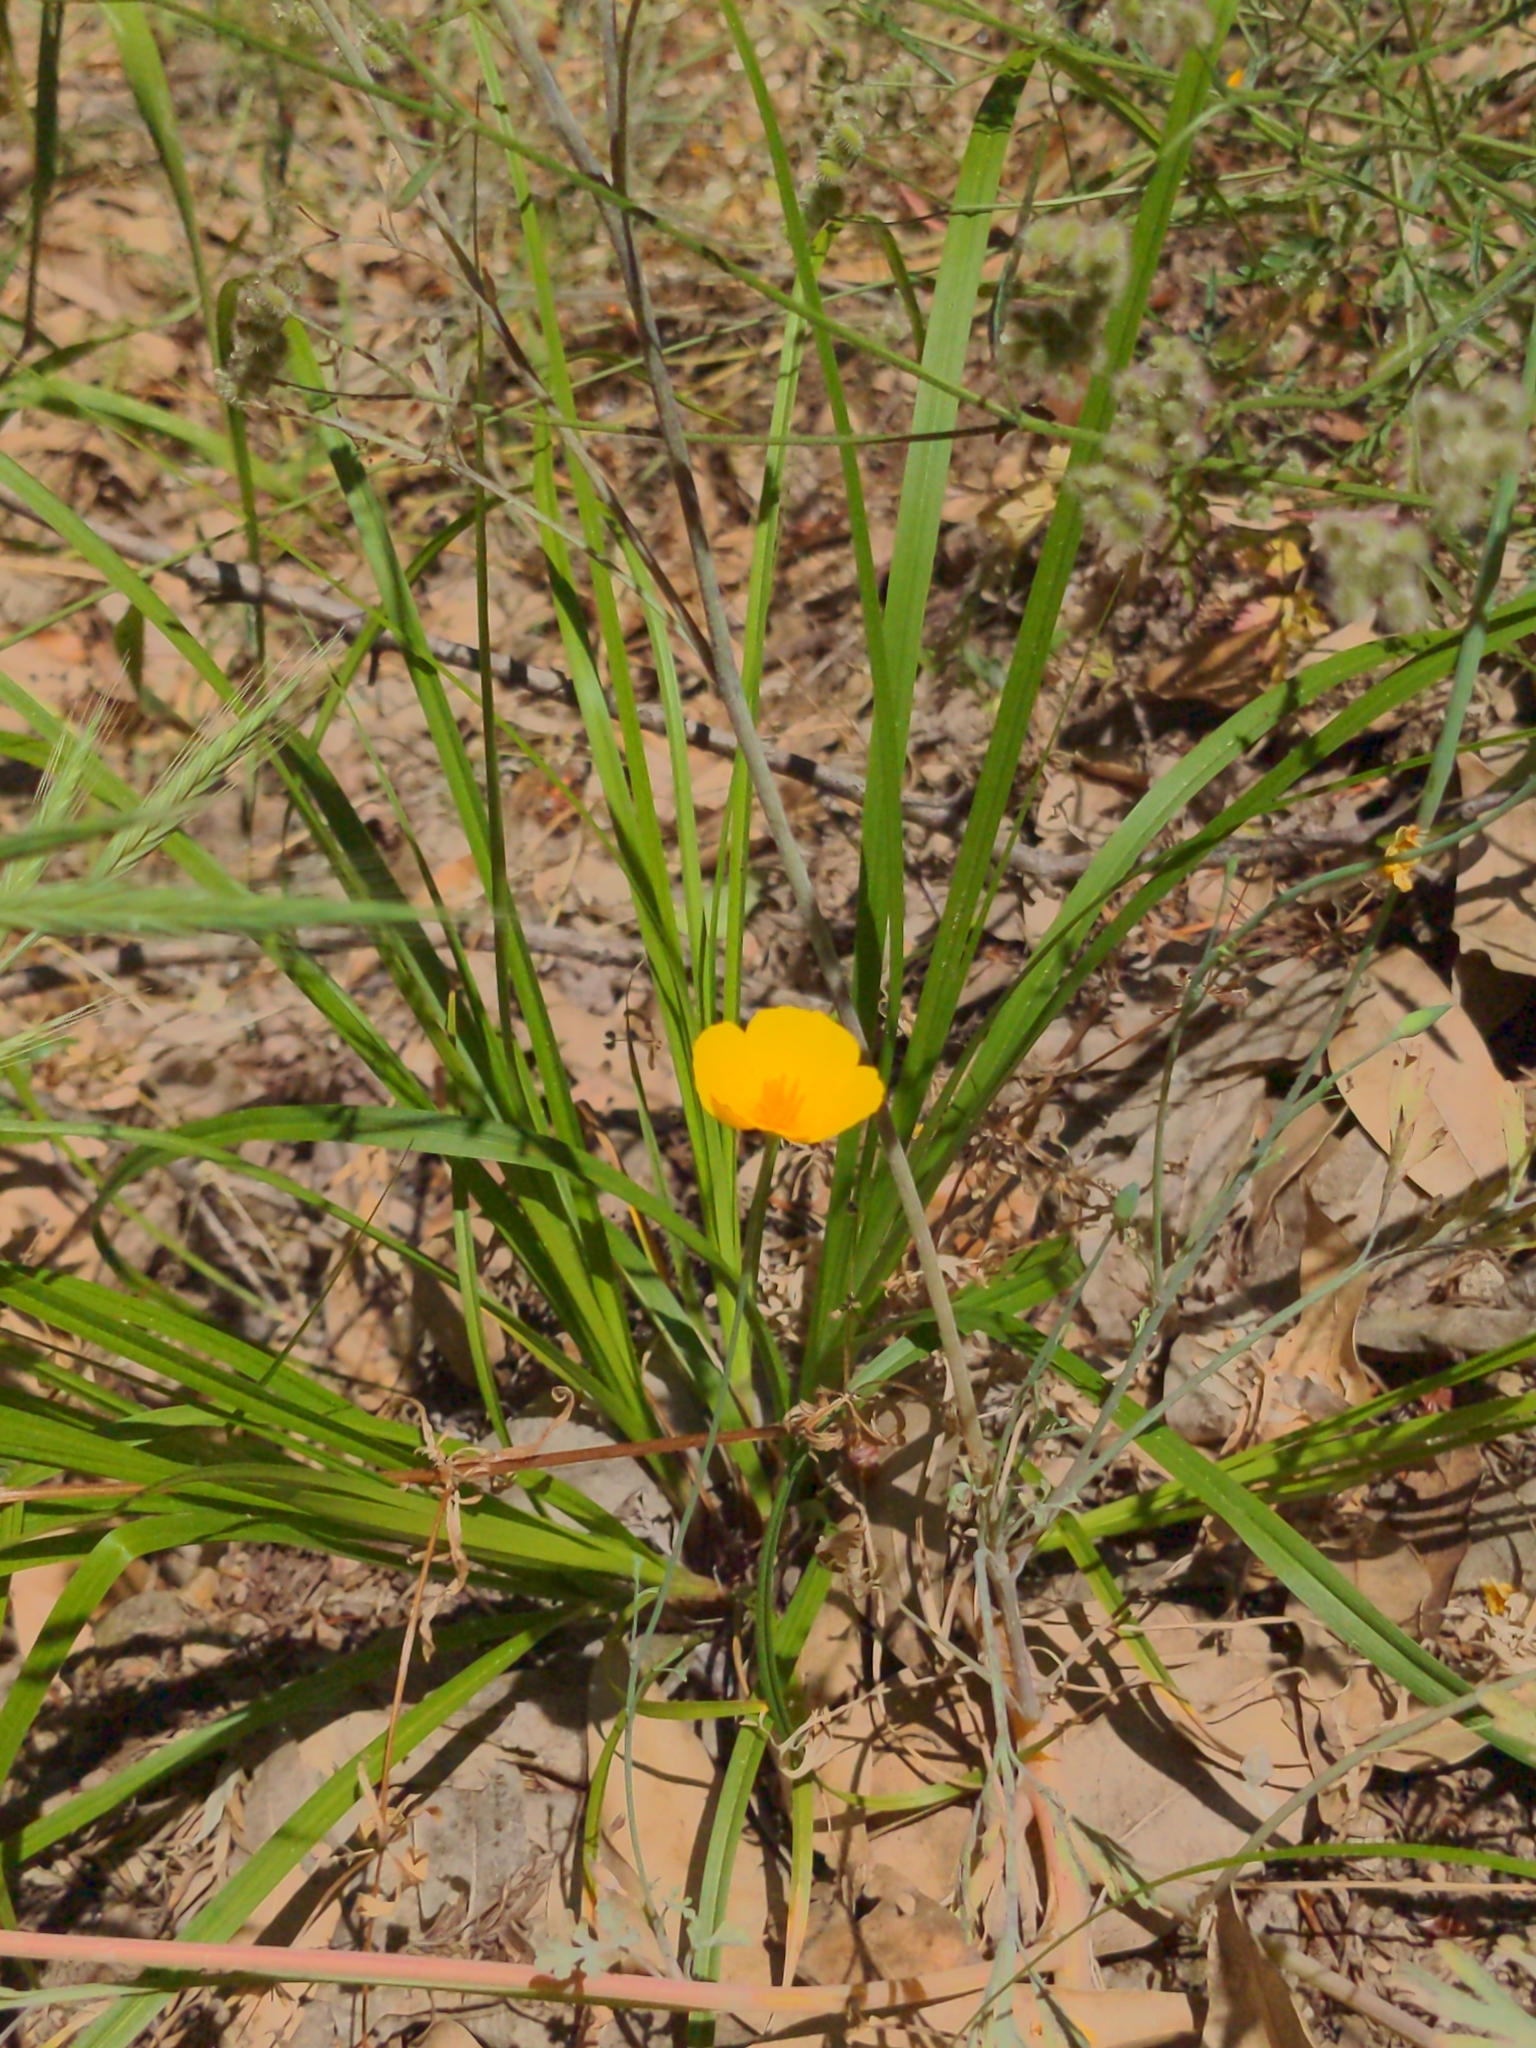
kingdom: Plantae
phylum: Tracheophyta
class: Magnoliopsida
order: Ranunculales
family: Papaveraceae
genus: Eschscholzia
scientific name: Eschscholzia caespitosa
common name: Tufted california-poppy
